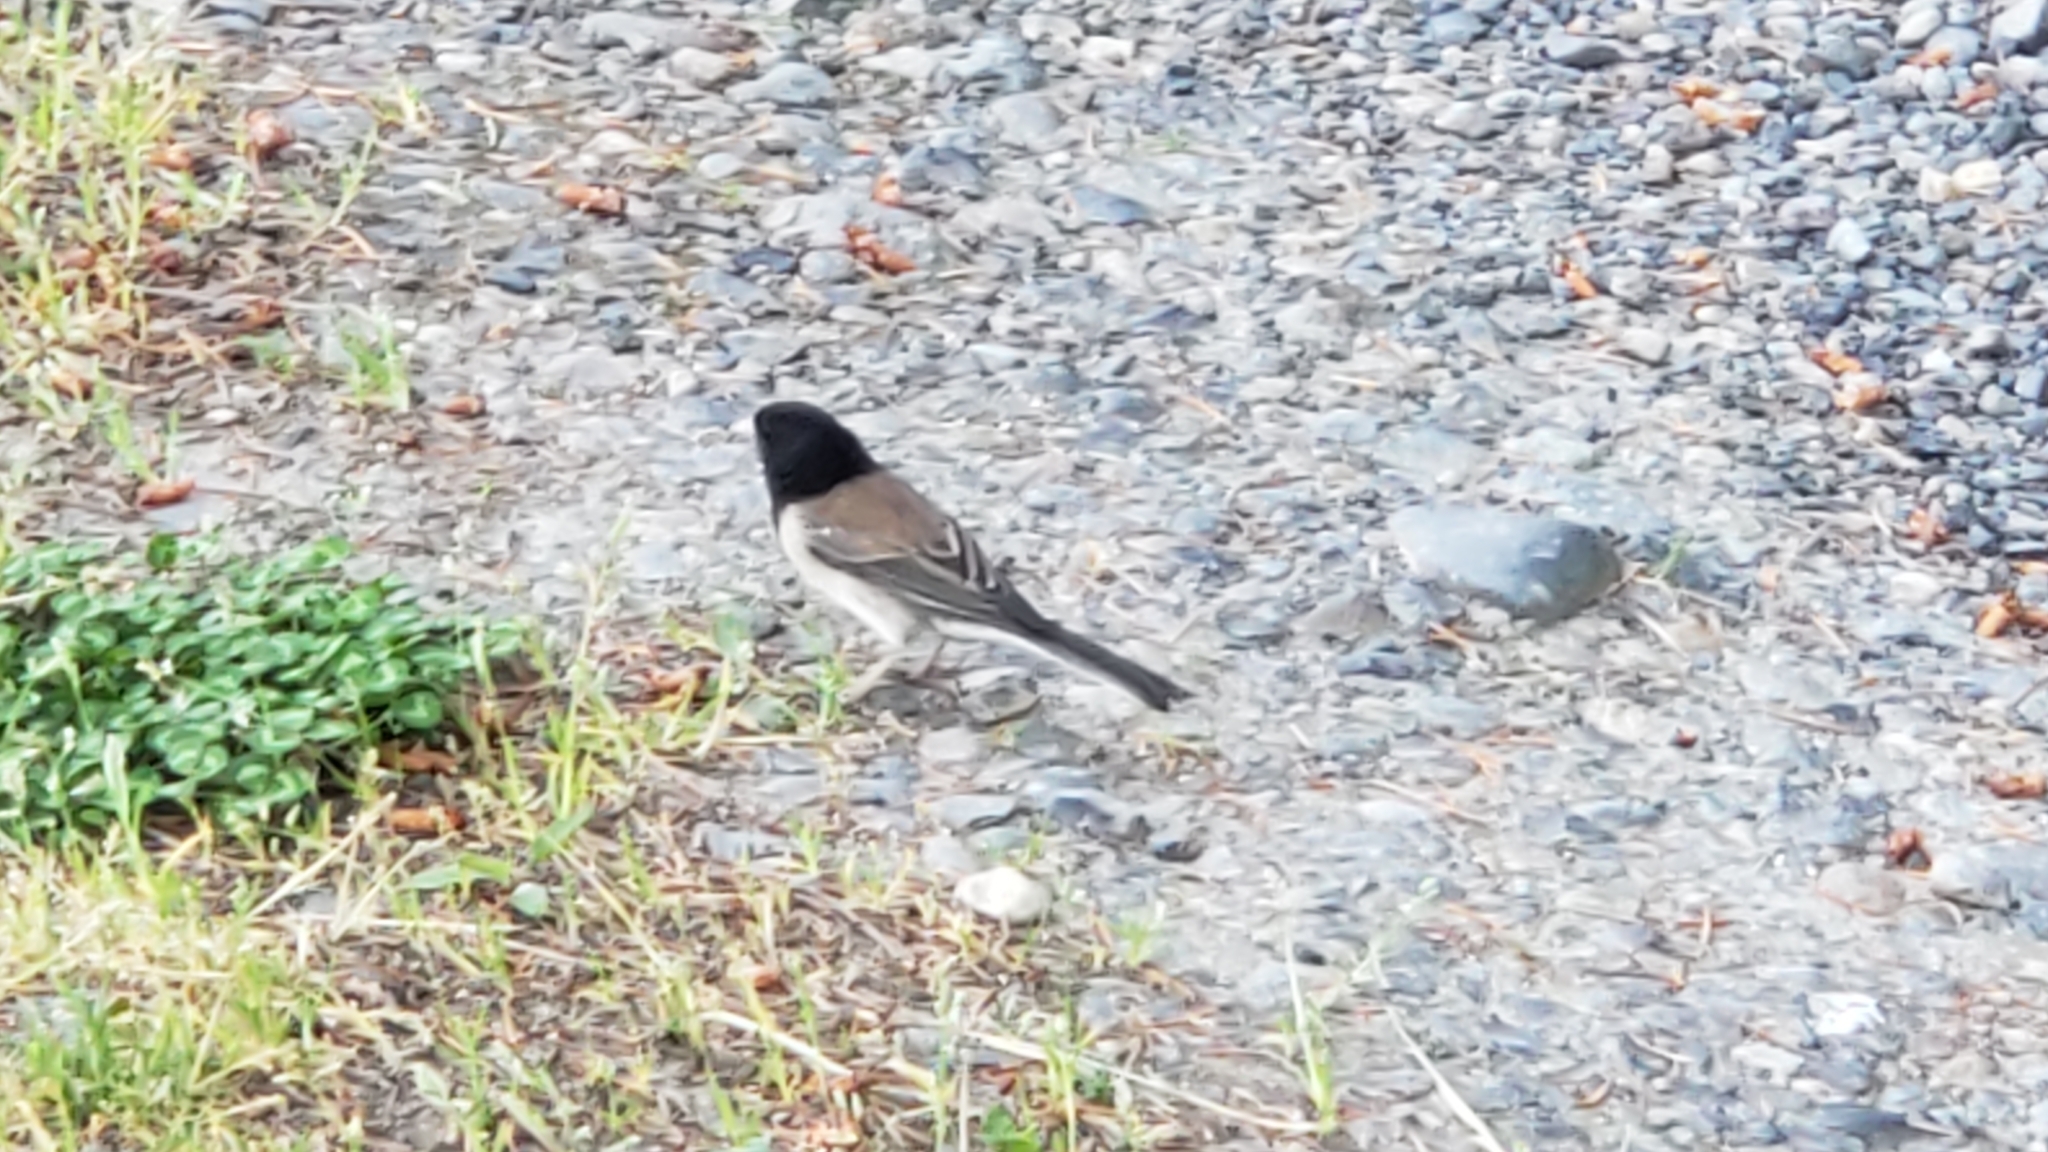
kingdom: Animalia
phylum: Chordata
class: Aves
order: Passeriformes
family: Passerellidae
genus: Junco
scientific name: Junco hyemalis
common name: Dark-eyed junco
